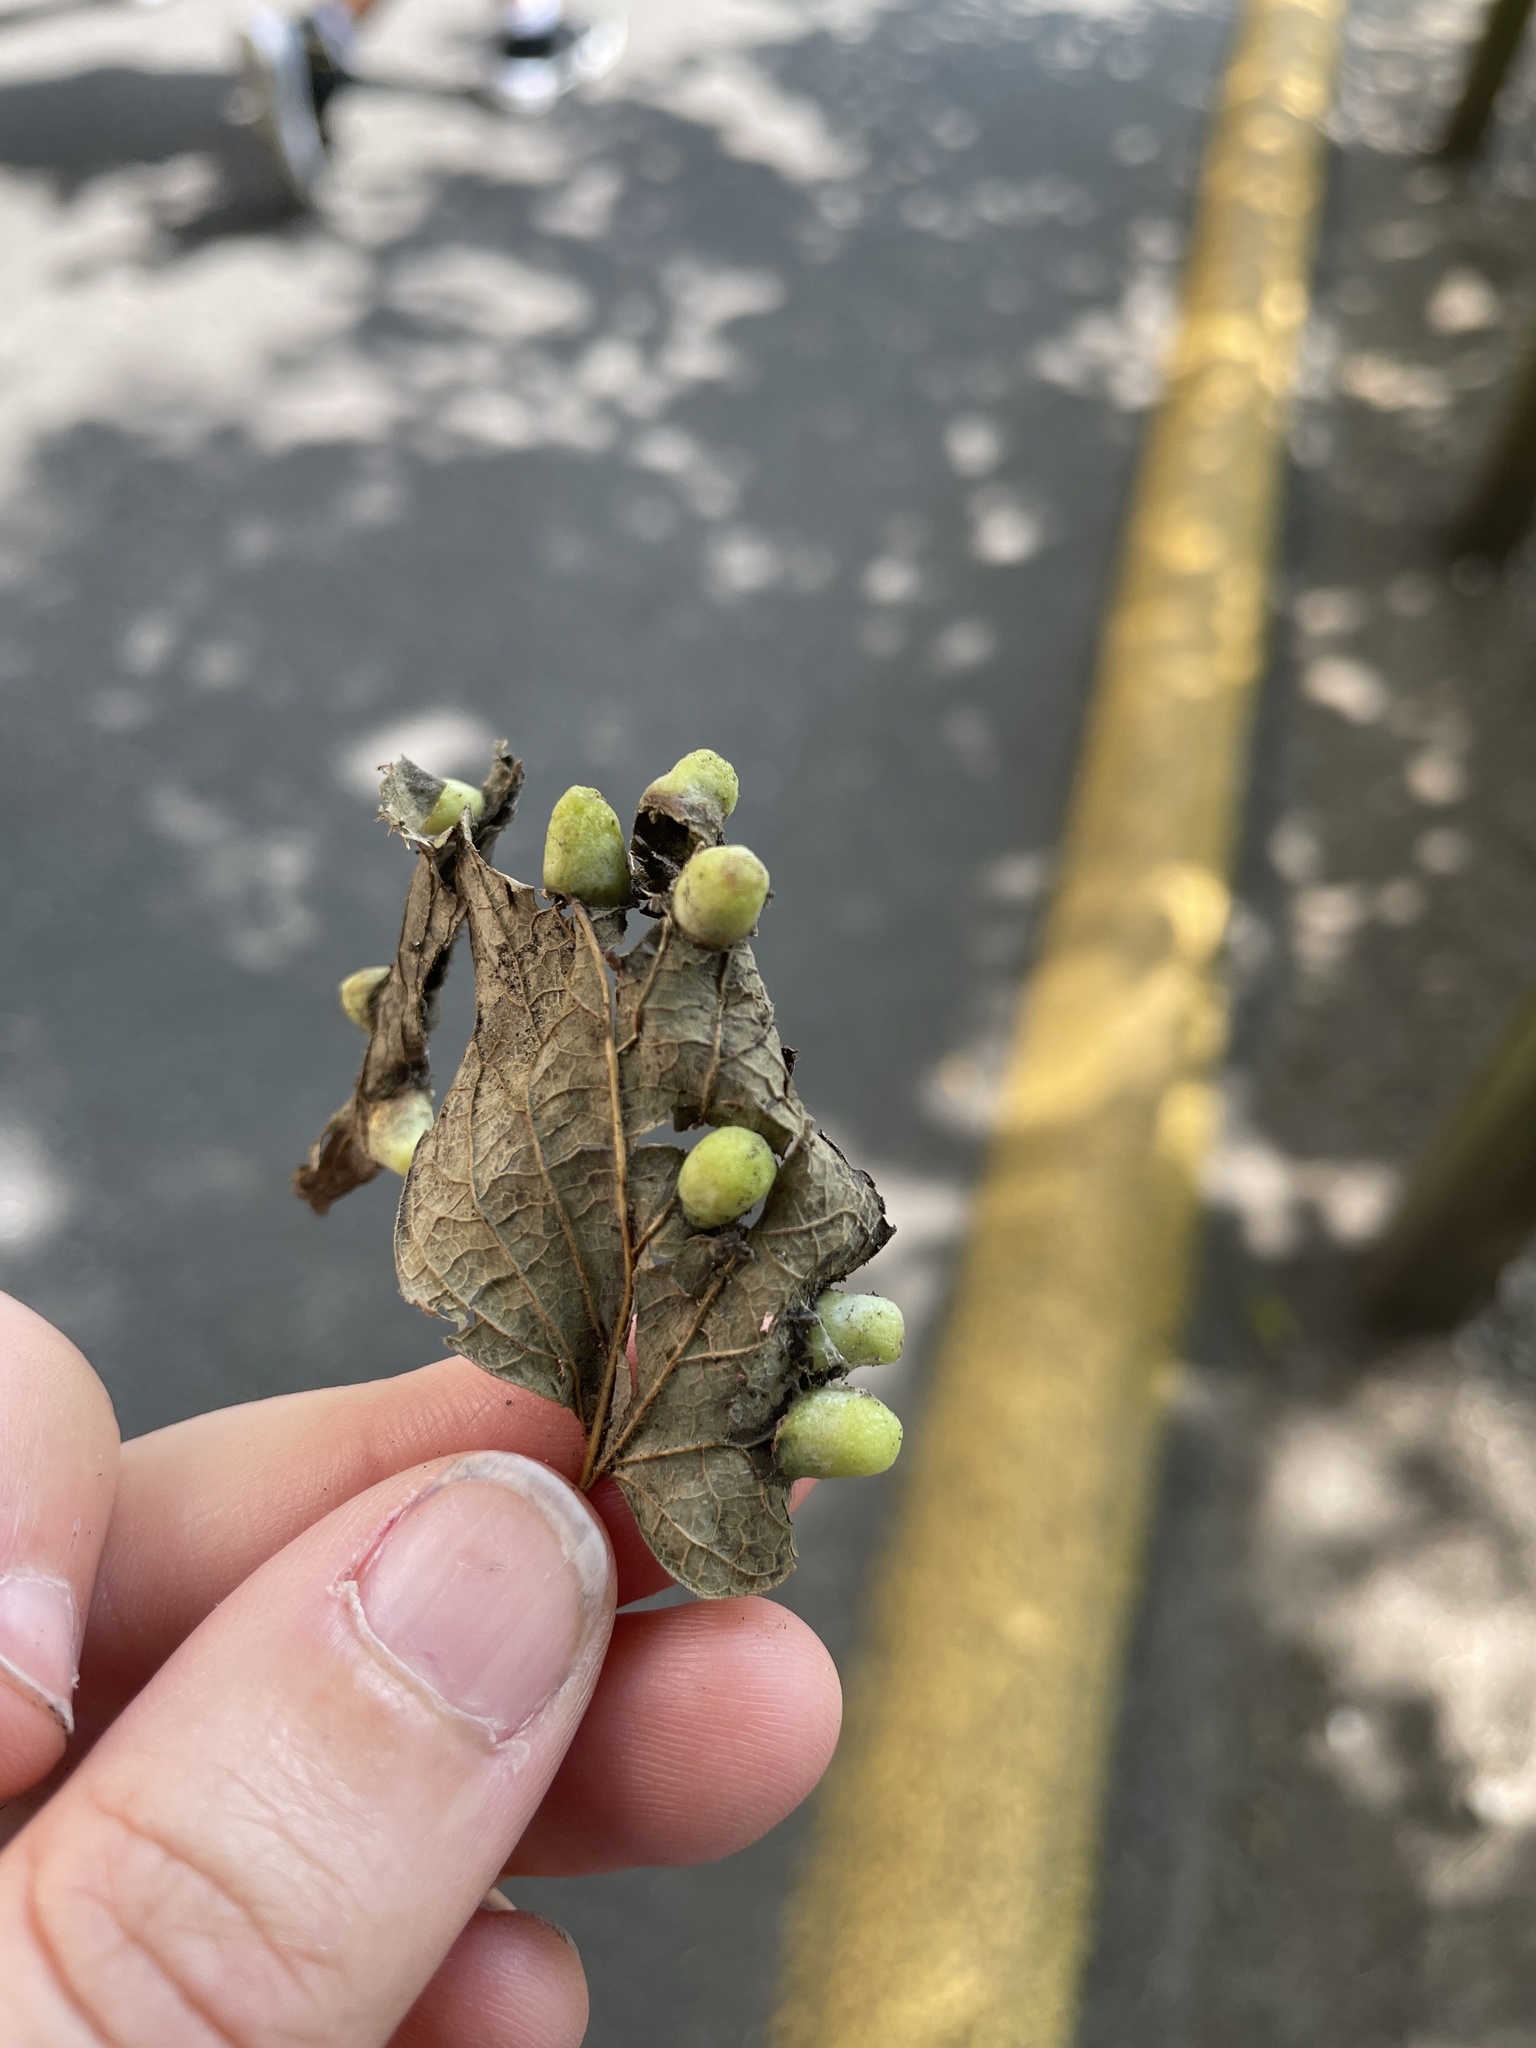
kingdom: Animalia
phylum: Arthropoda
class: Insecta
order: Hemiptera
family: Aphalaridae
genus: Pachypsylla
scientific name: Pachypsylla celtidismamma
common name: Hackberry nipplegall psyllid
